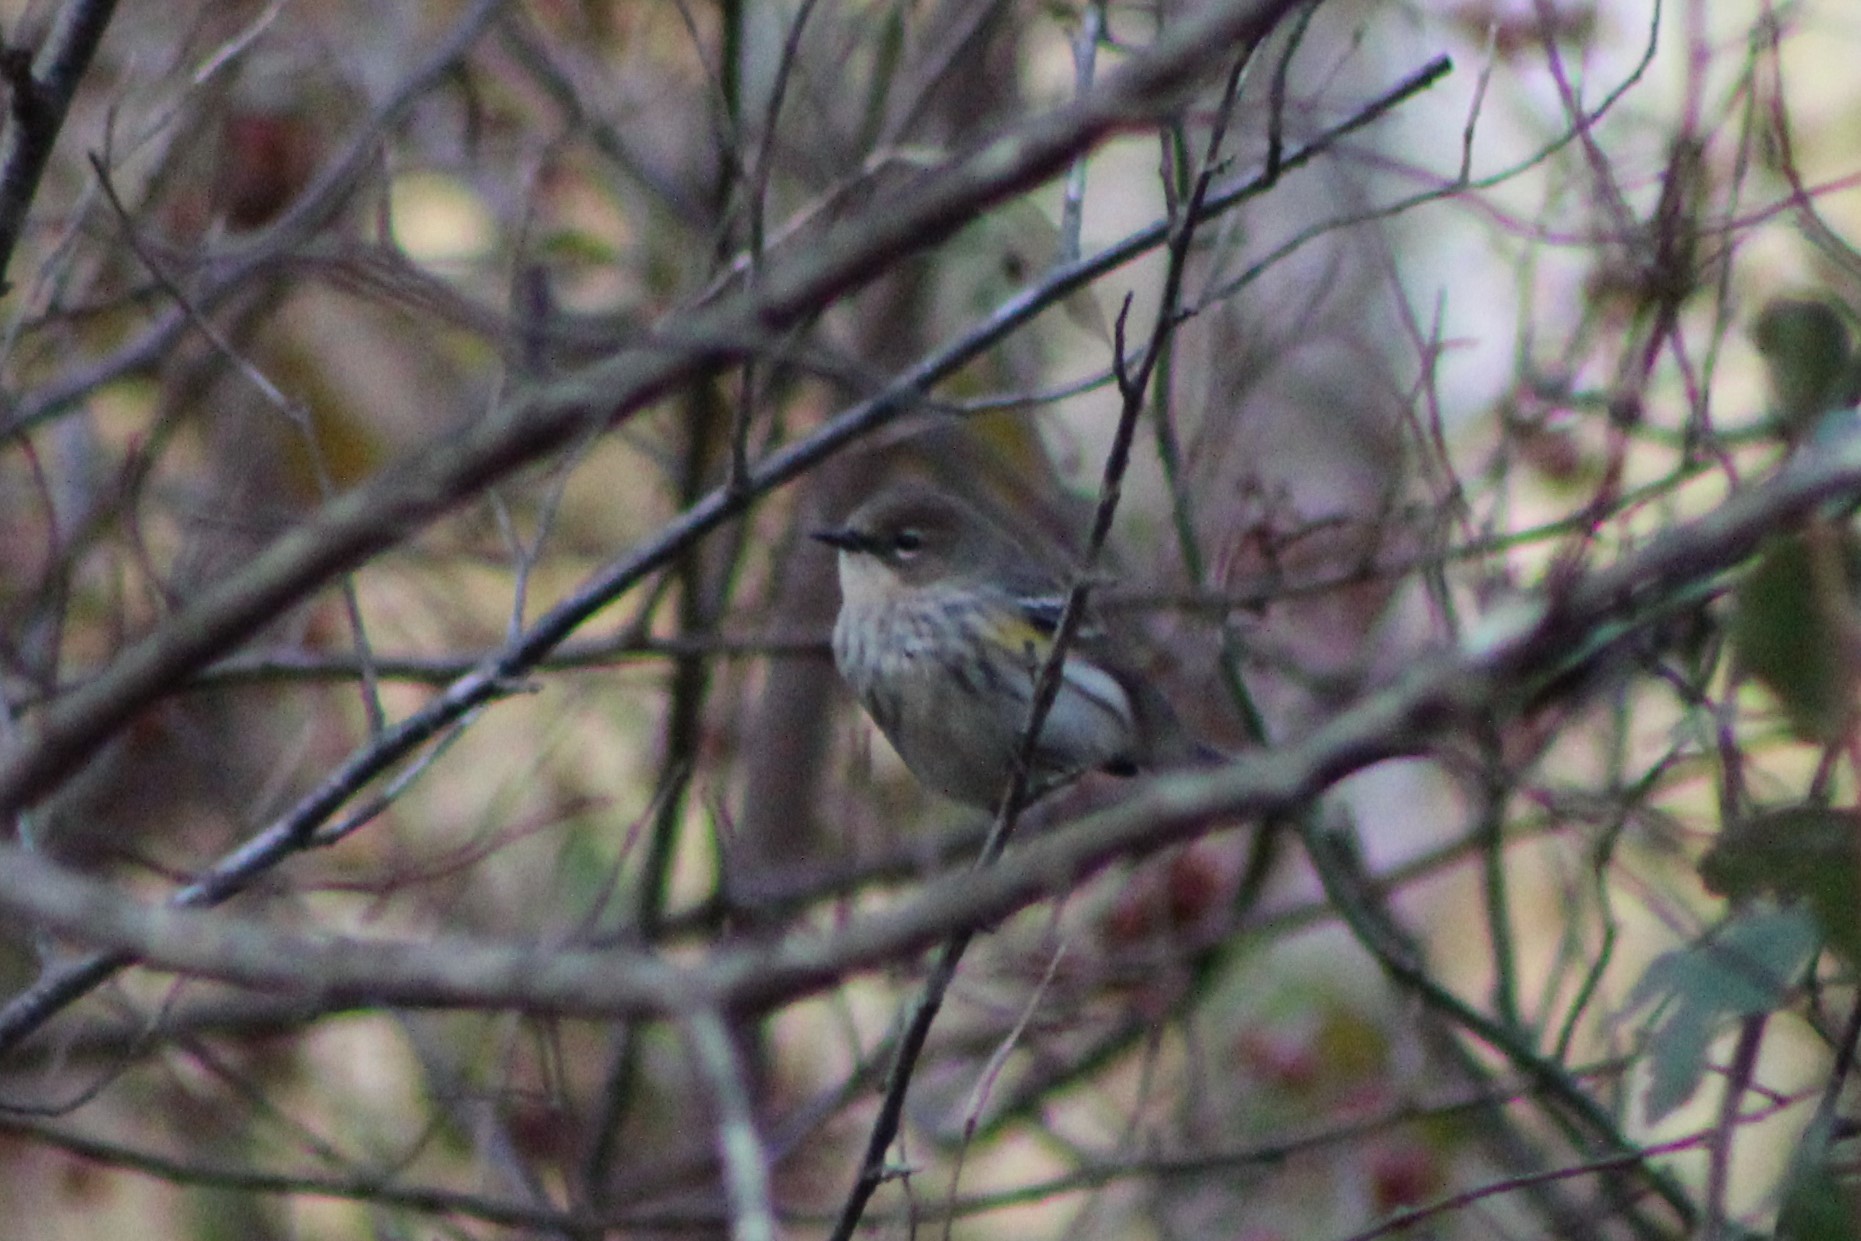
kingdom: Animalia
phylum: Chordata
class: Aves
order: Passeriformes
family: Parulidae
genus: Setophaga
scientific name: Setophaga coronata
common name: Myrtle warbler
